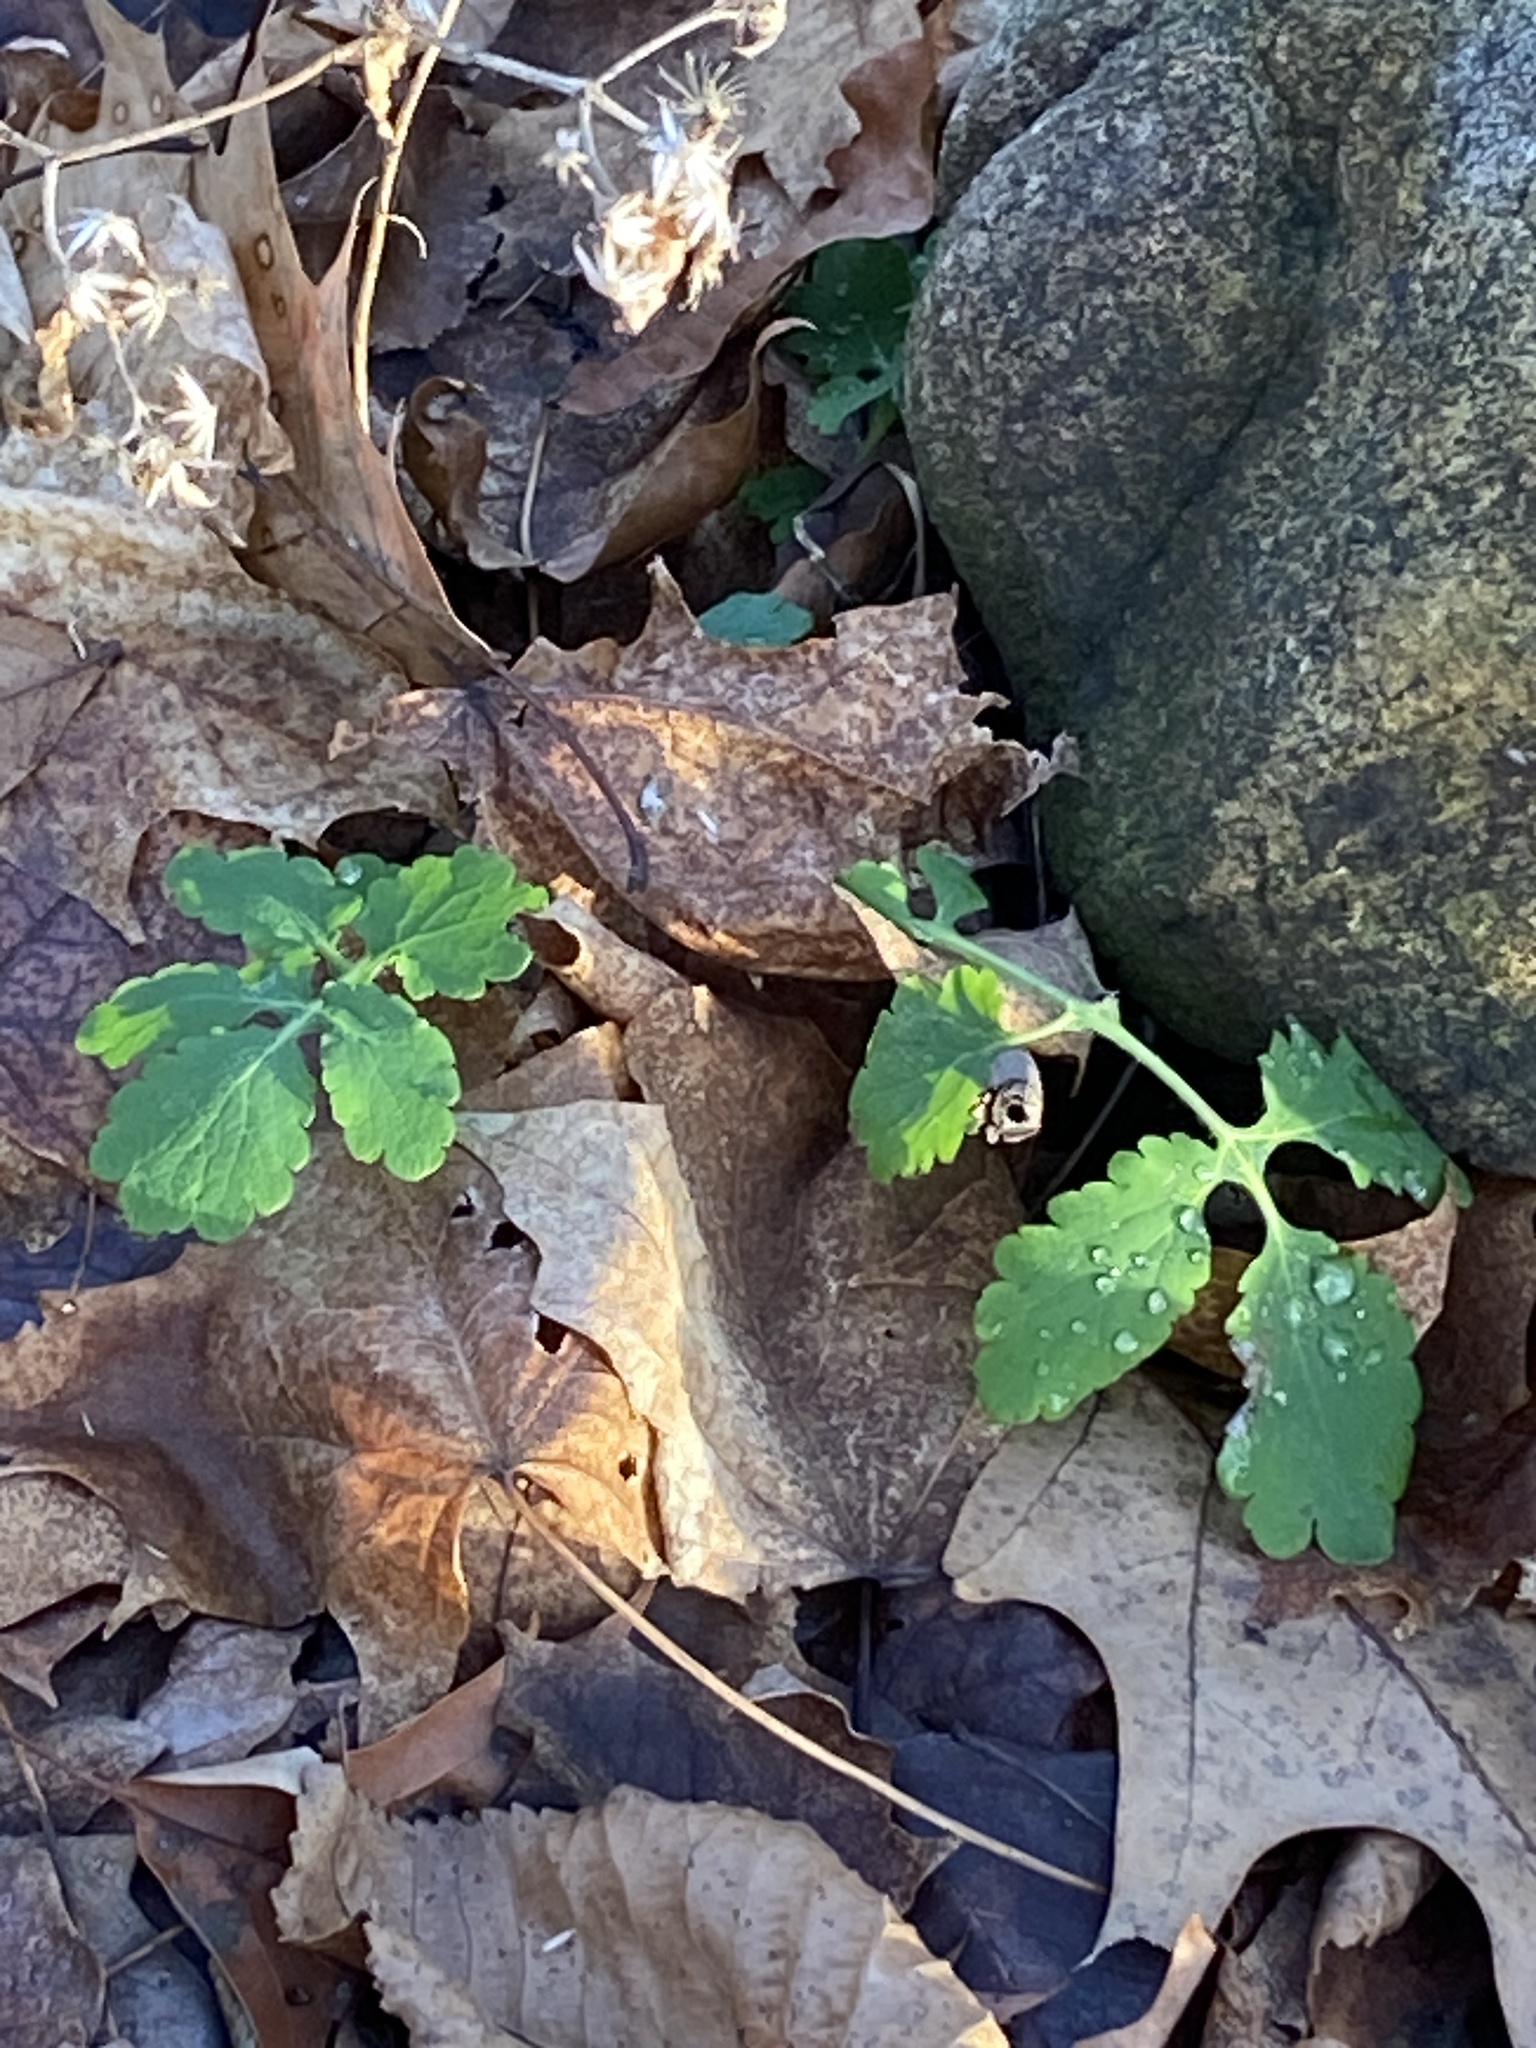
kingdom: Plantae
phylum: Tracheophyta
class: Magnoliopsida
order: Ranunculales
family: Papaveraceae
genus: Chelidonium
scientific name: Chelidonium majus
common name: Greater celandine
